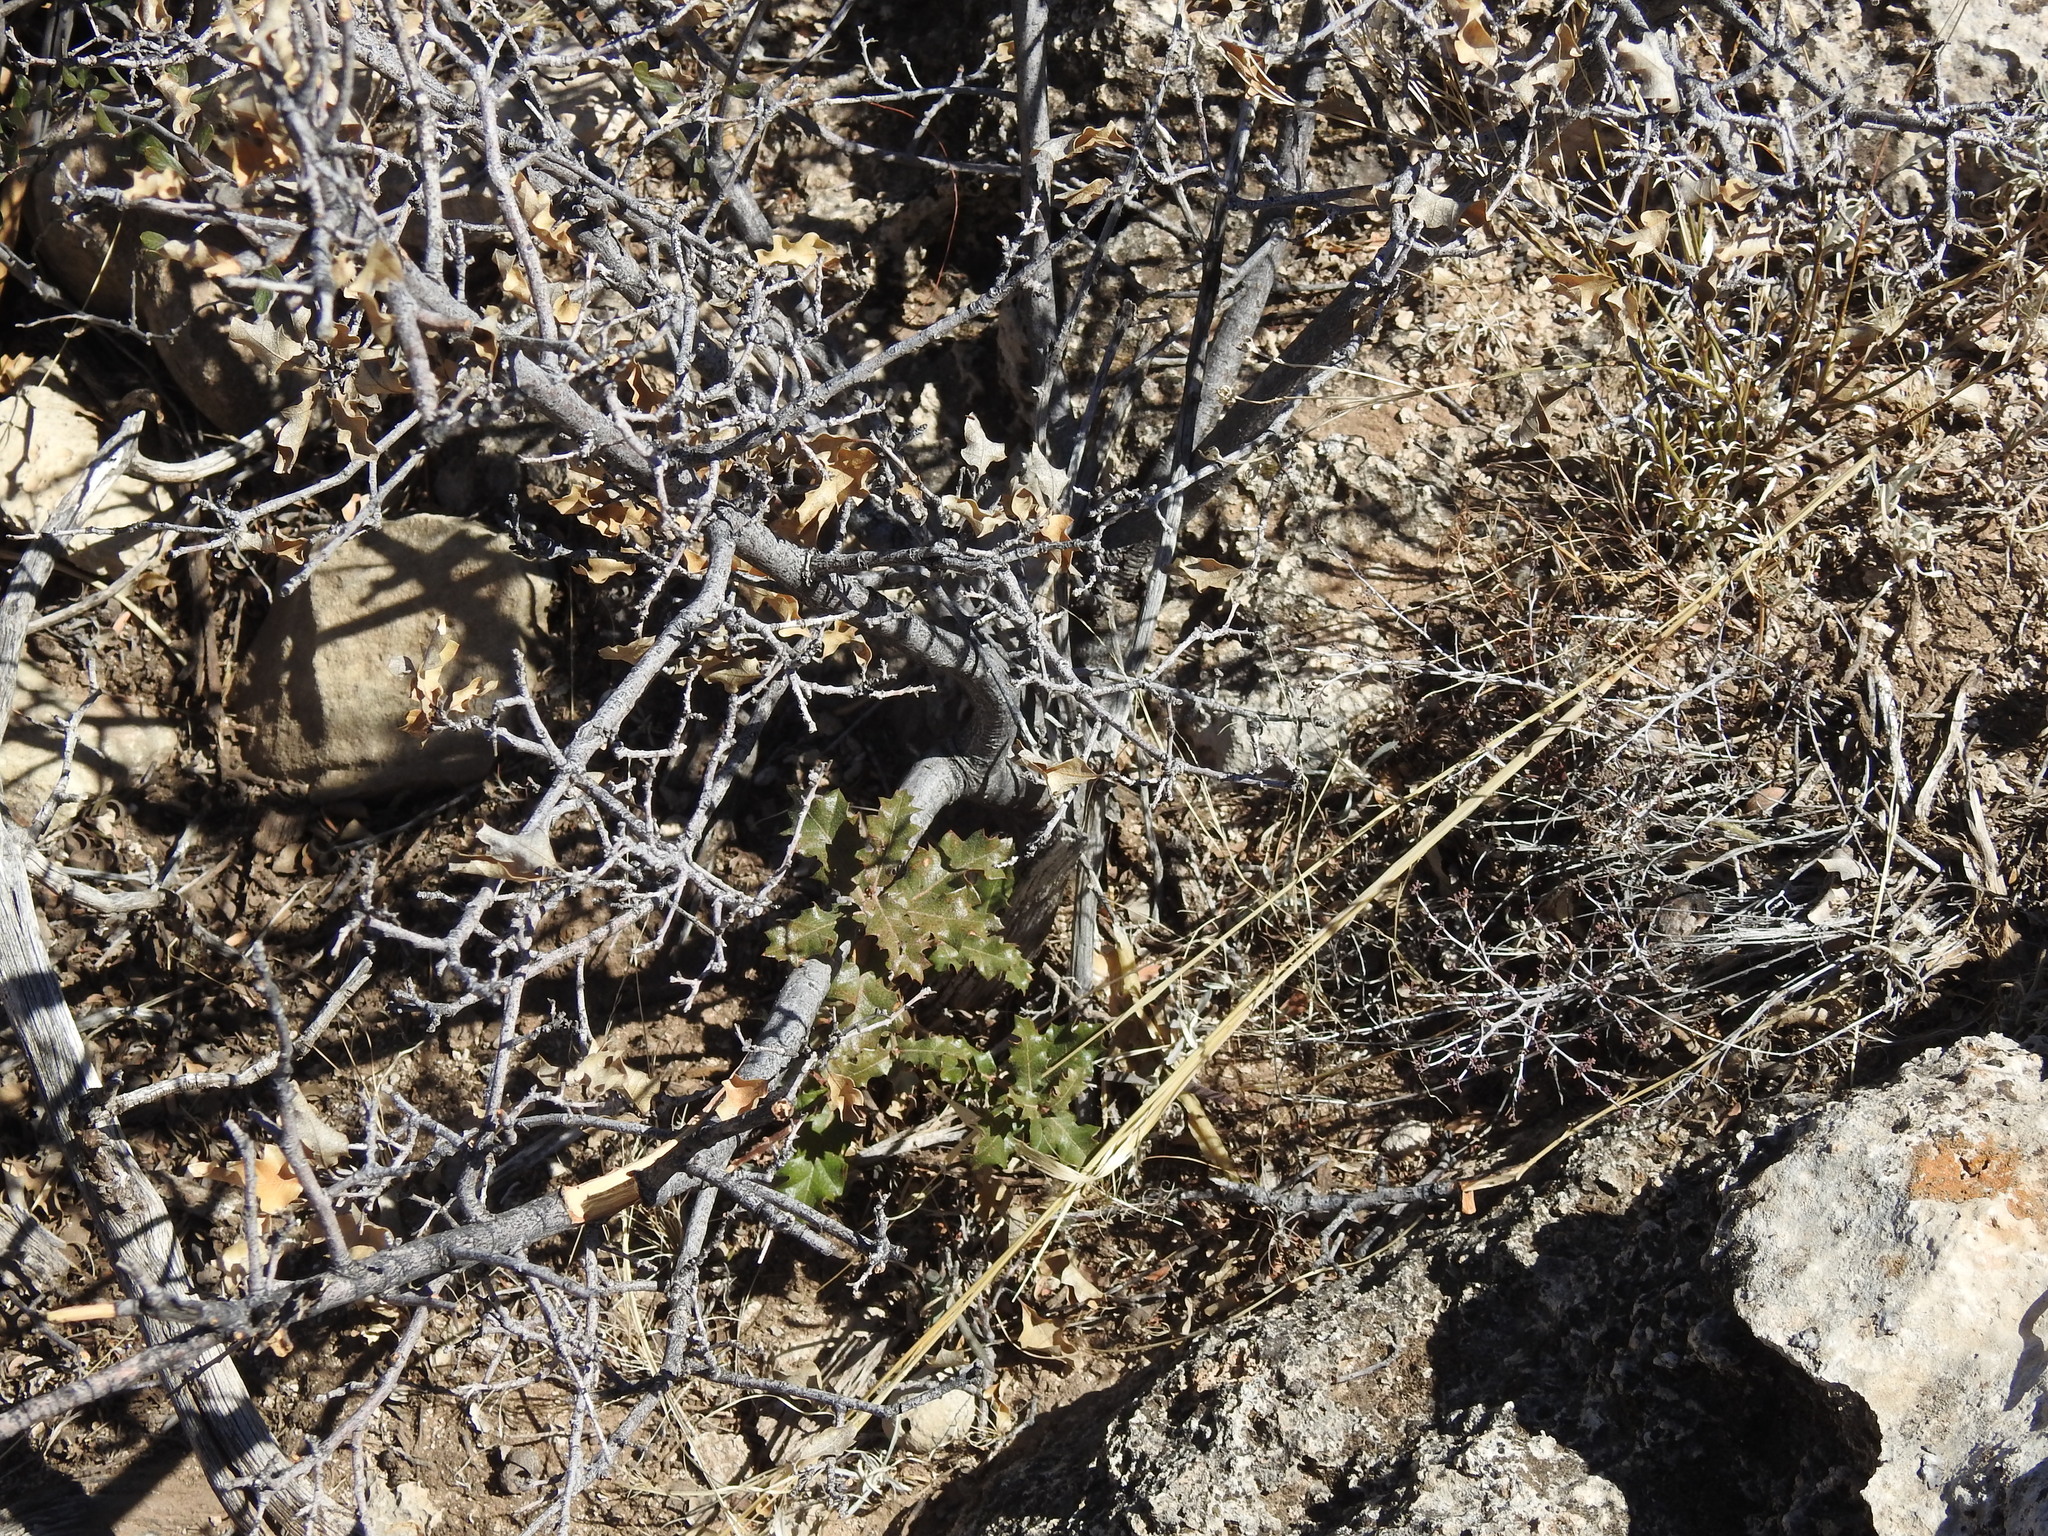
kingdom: Plantae
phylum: Tracheophyta
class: Magnoliopsida
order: Fagales
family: Fagaceae
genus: Quercus
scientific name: Quercus pungens
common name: Pungent oak
